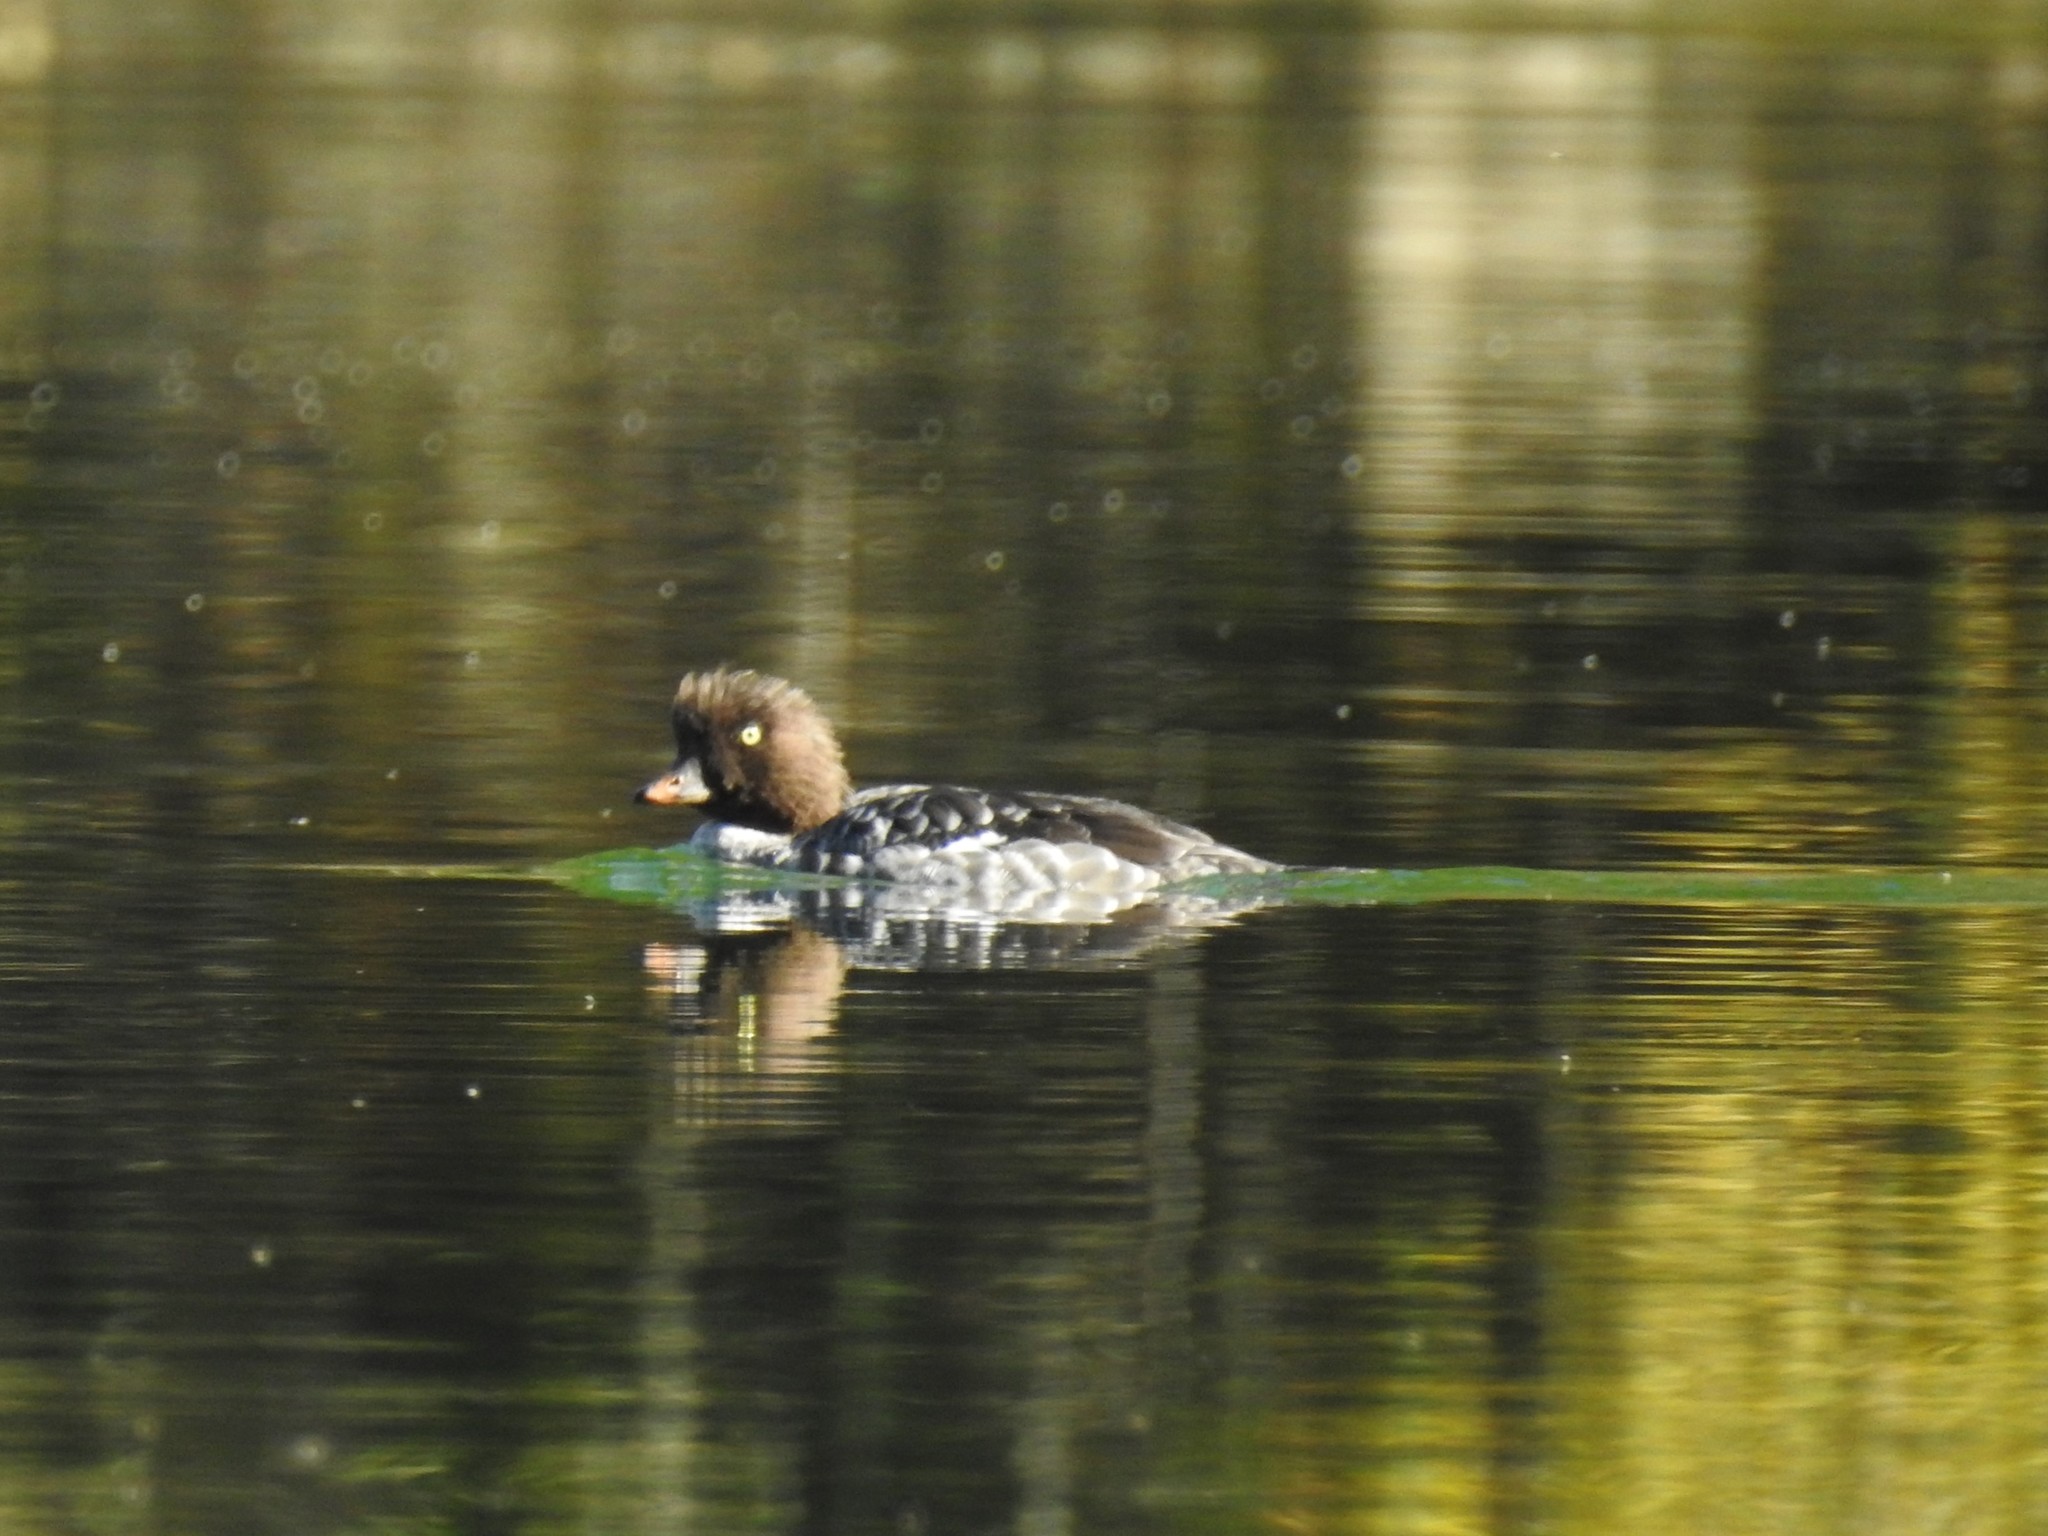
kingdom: Animalia
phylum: Chordata
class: Aves
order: Anseriformes
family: Anatidae
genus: Bucephala
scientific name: Bucephala islandica
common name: Barrow's goldeneye
